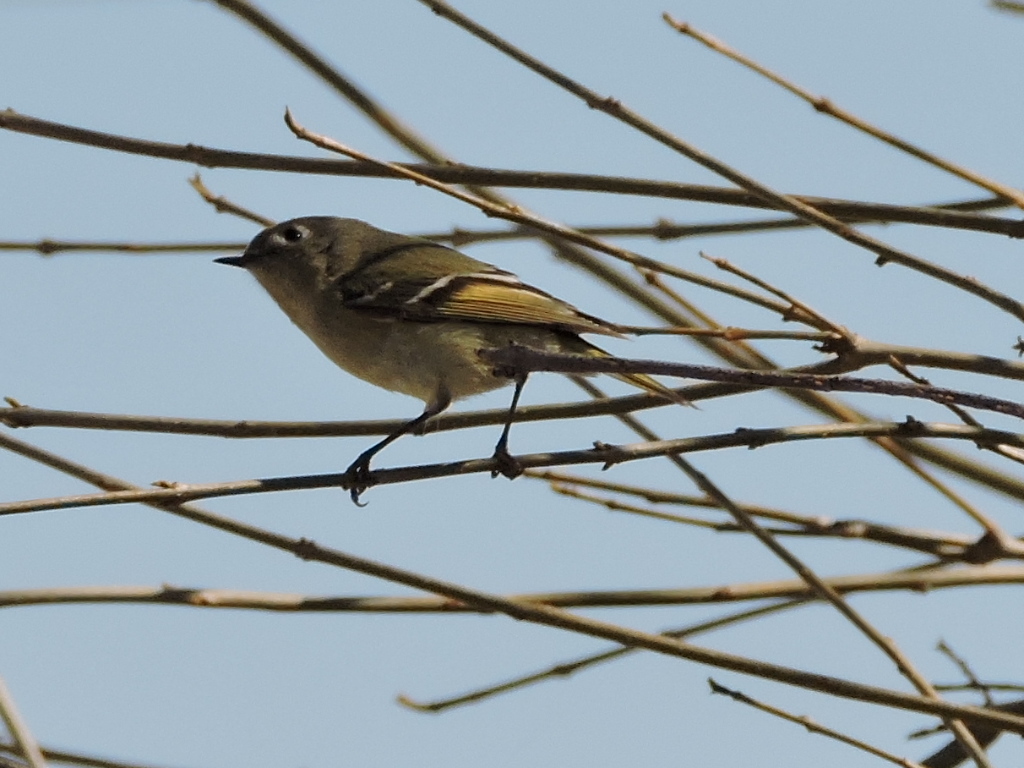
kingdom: Animalia
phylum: Chordata
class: Aves
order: Passeriformes
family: Regulidae
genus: Regulus
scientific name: Regulus calendula
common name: Ruby-crowned kinglet
